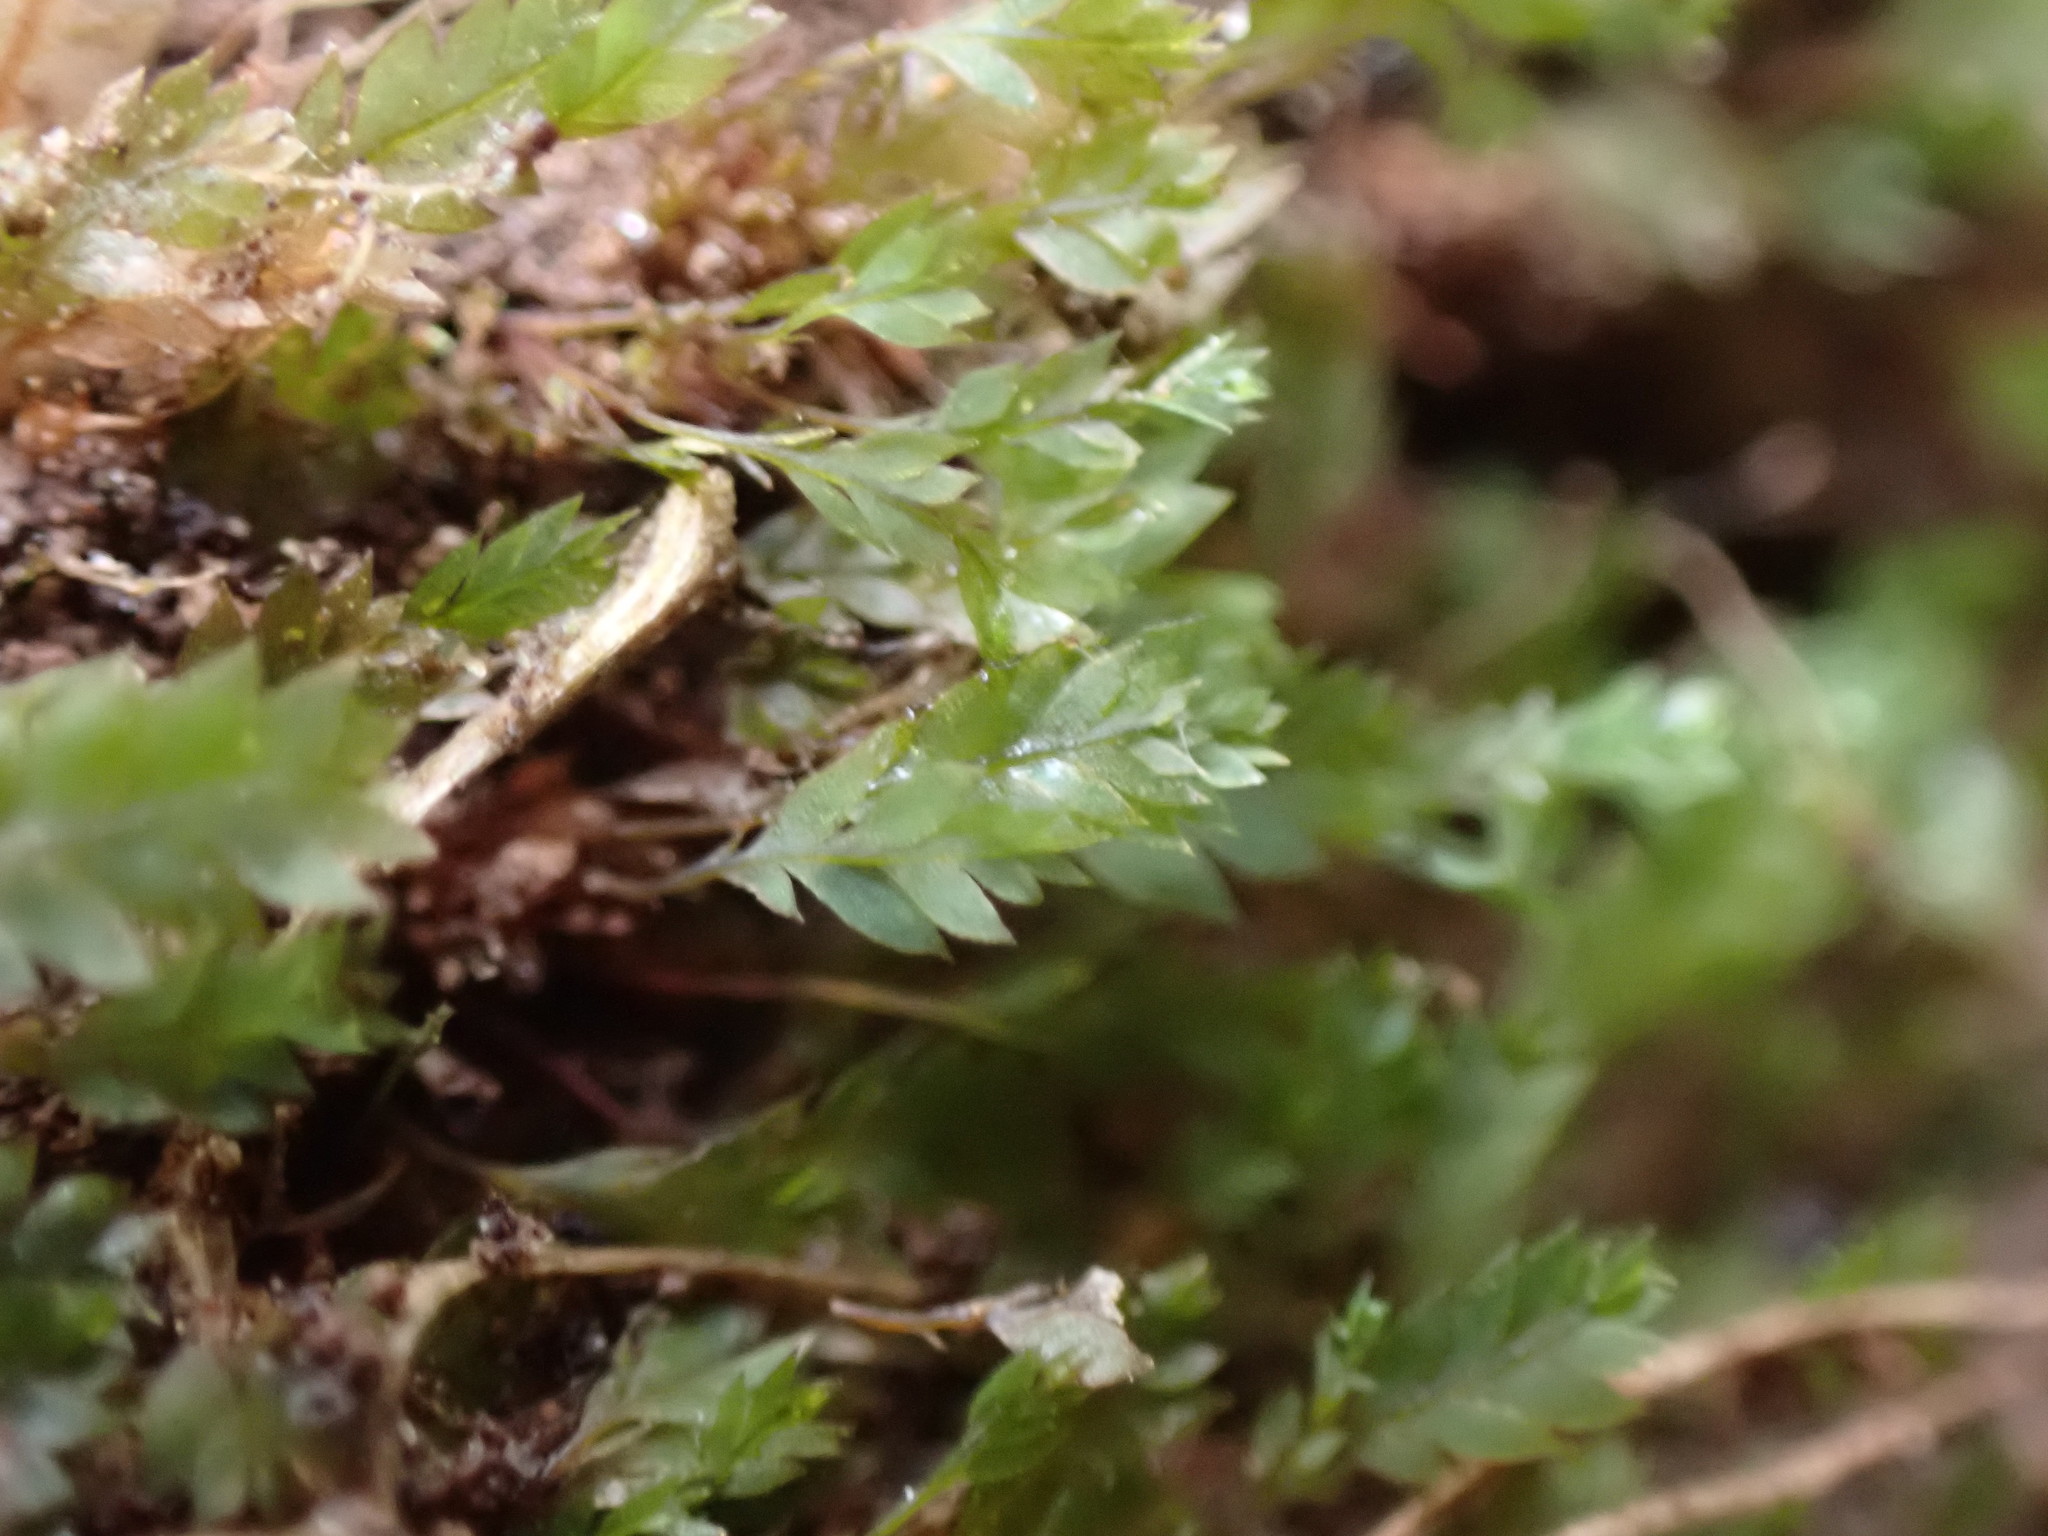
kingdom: Plantae
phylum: Bryophyta
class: Bryopsida
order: Dicranales
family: Schistostegaceae
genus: Schistostega
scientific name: Schistostega pennata
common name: Luminous moss
